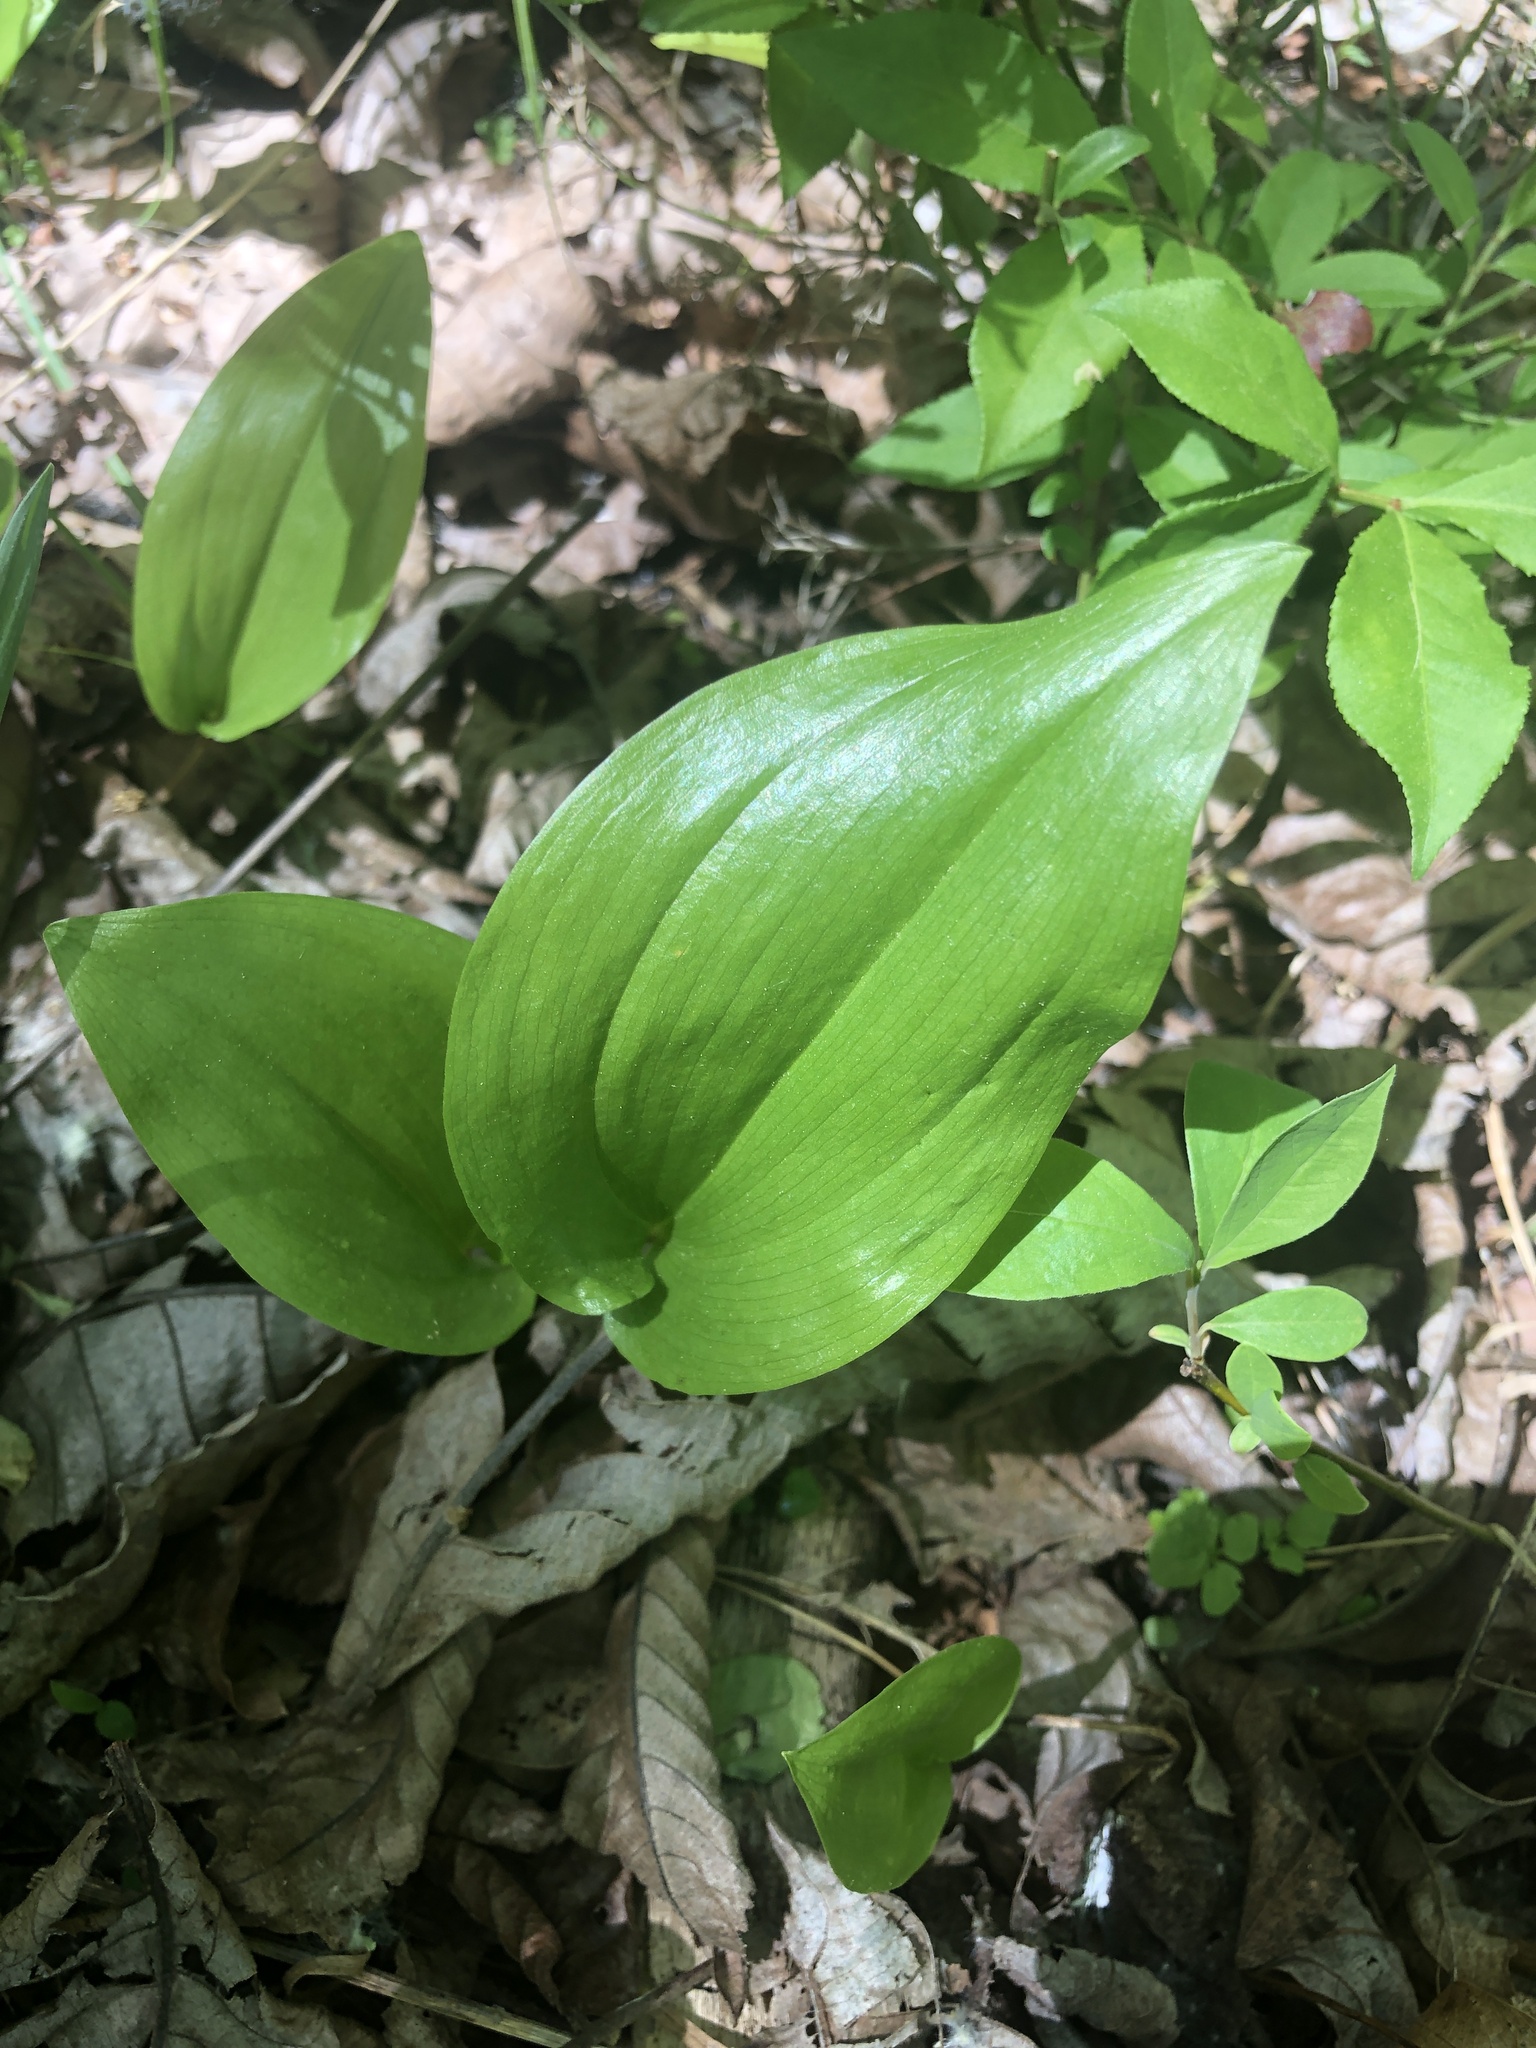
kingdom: Plantae
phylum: Tracheophyta
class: Liliopsida
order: Asparagales
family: Asparagaceae
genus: Maianthemum
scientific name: Maianthemum canadense
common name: False lily-of-the-valley
